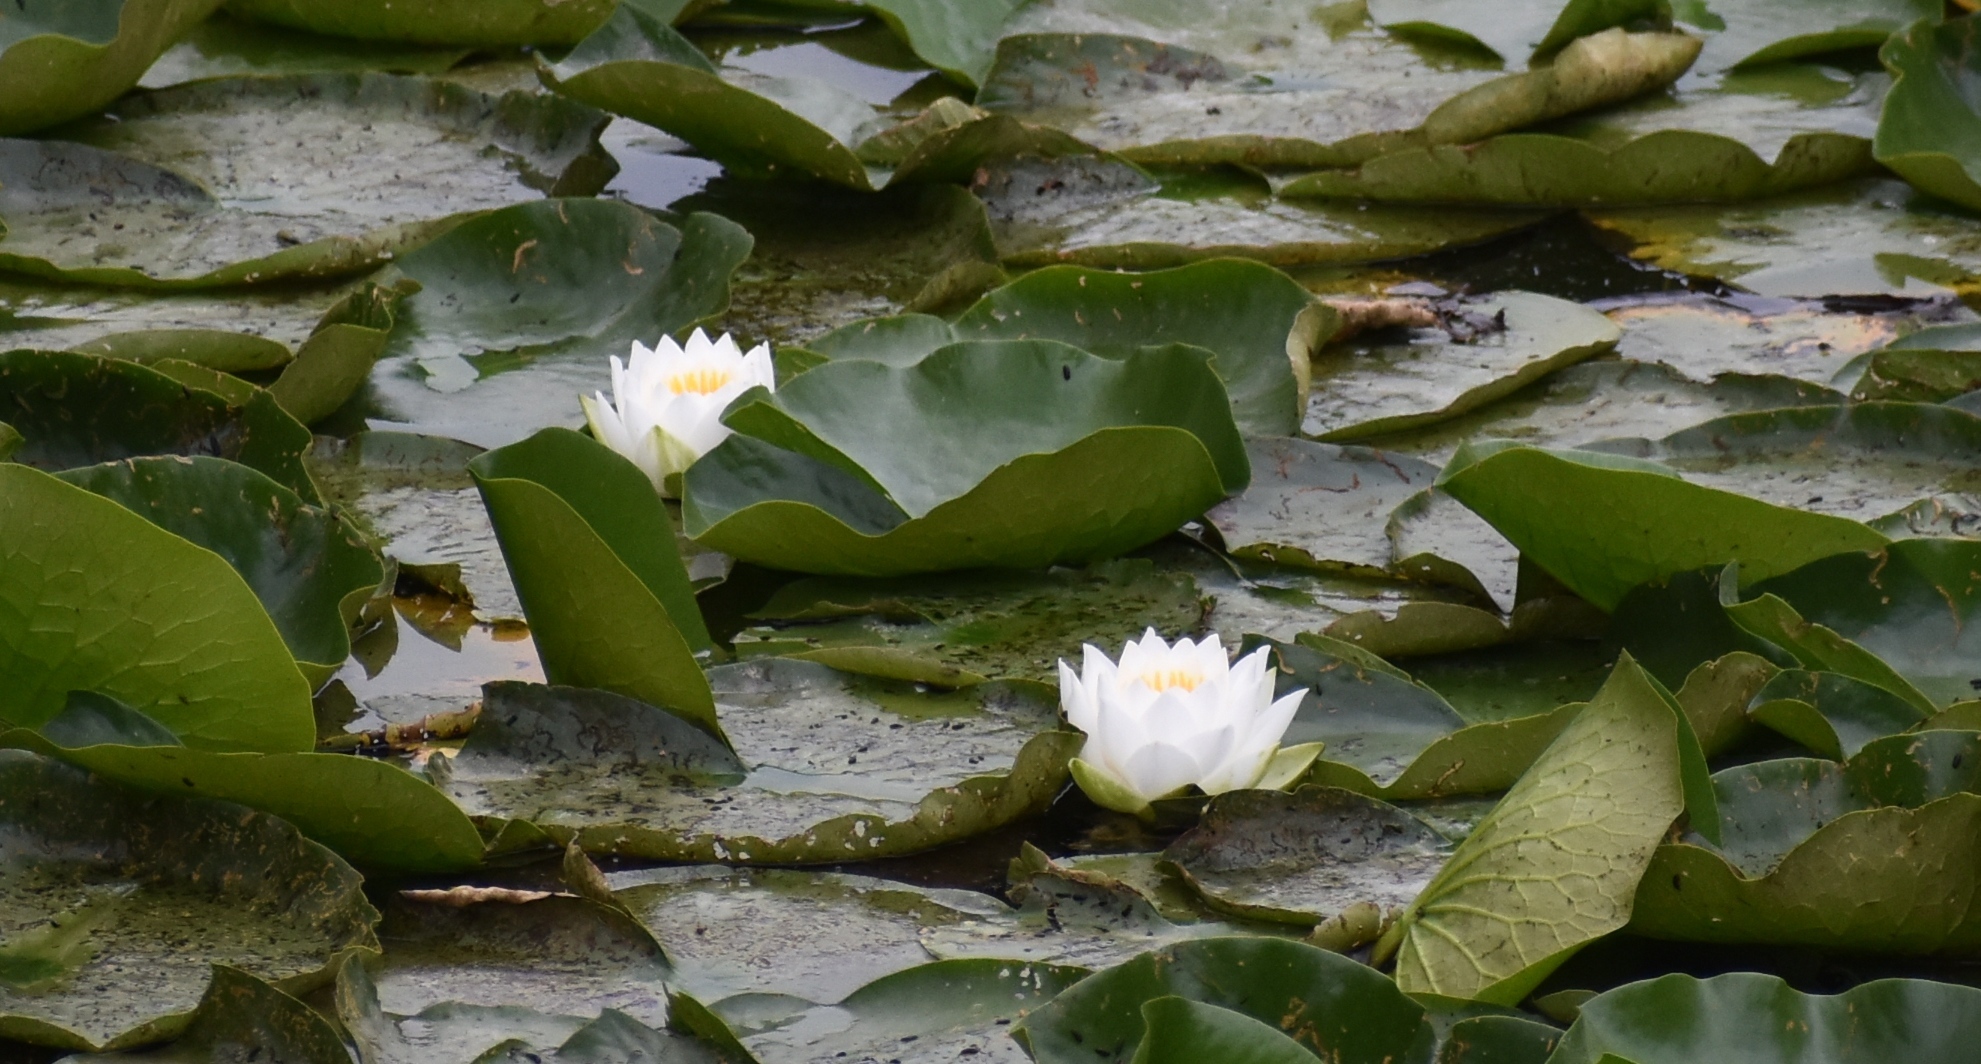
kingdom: Plantae
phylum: Tracheophyta
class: Magnoliopsida
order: Nymphaeales
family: Nymphaeaceae
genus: Nymphaea
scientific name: Nymphaea alba
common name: White water-lily
